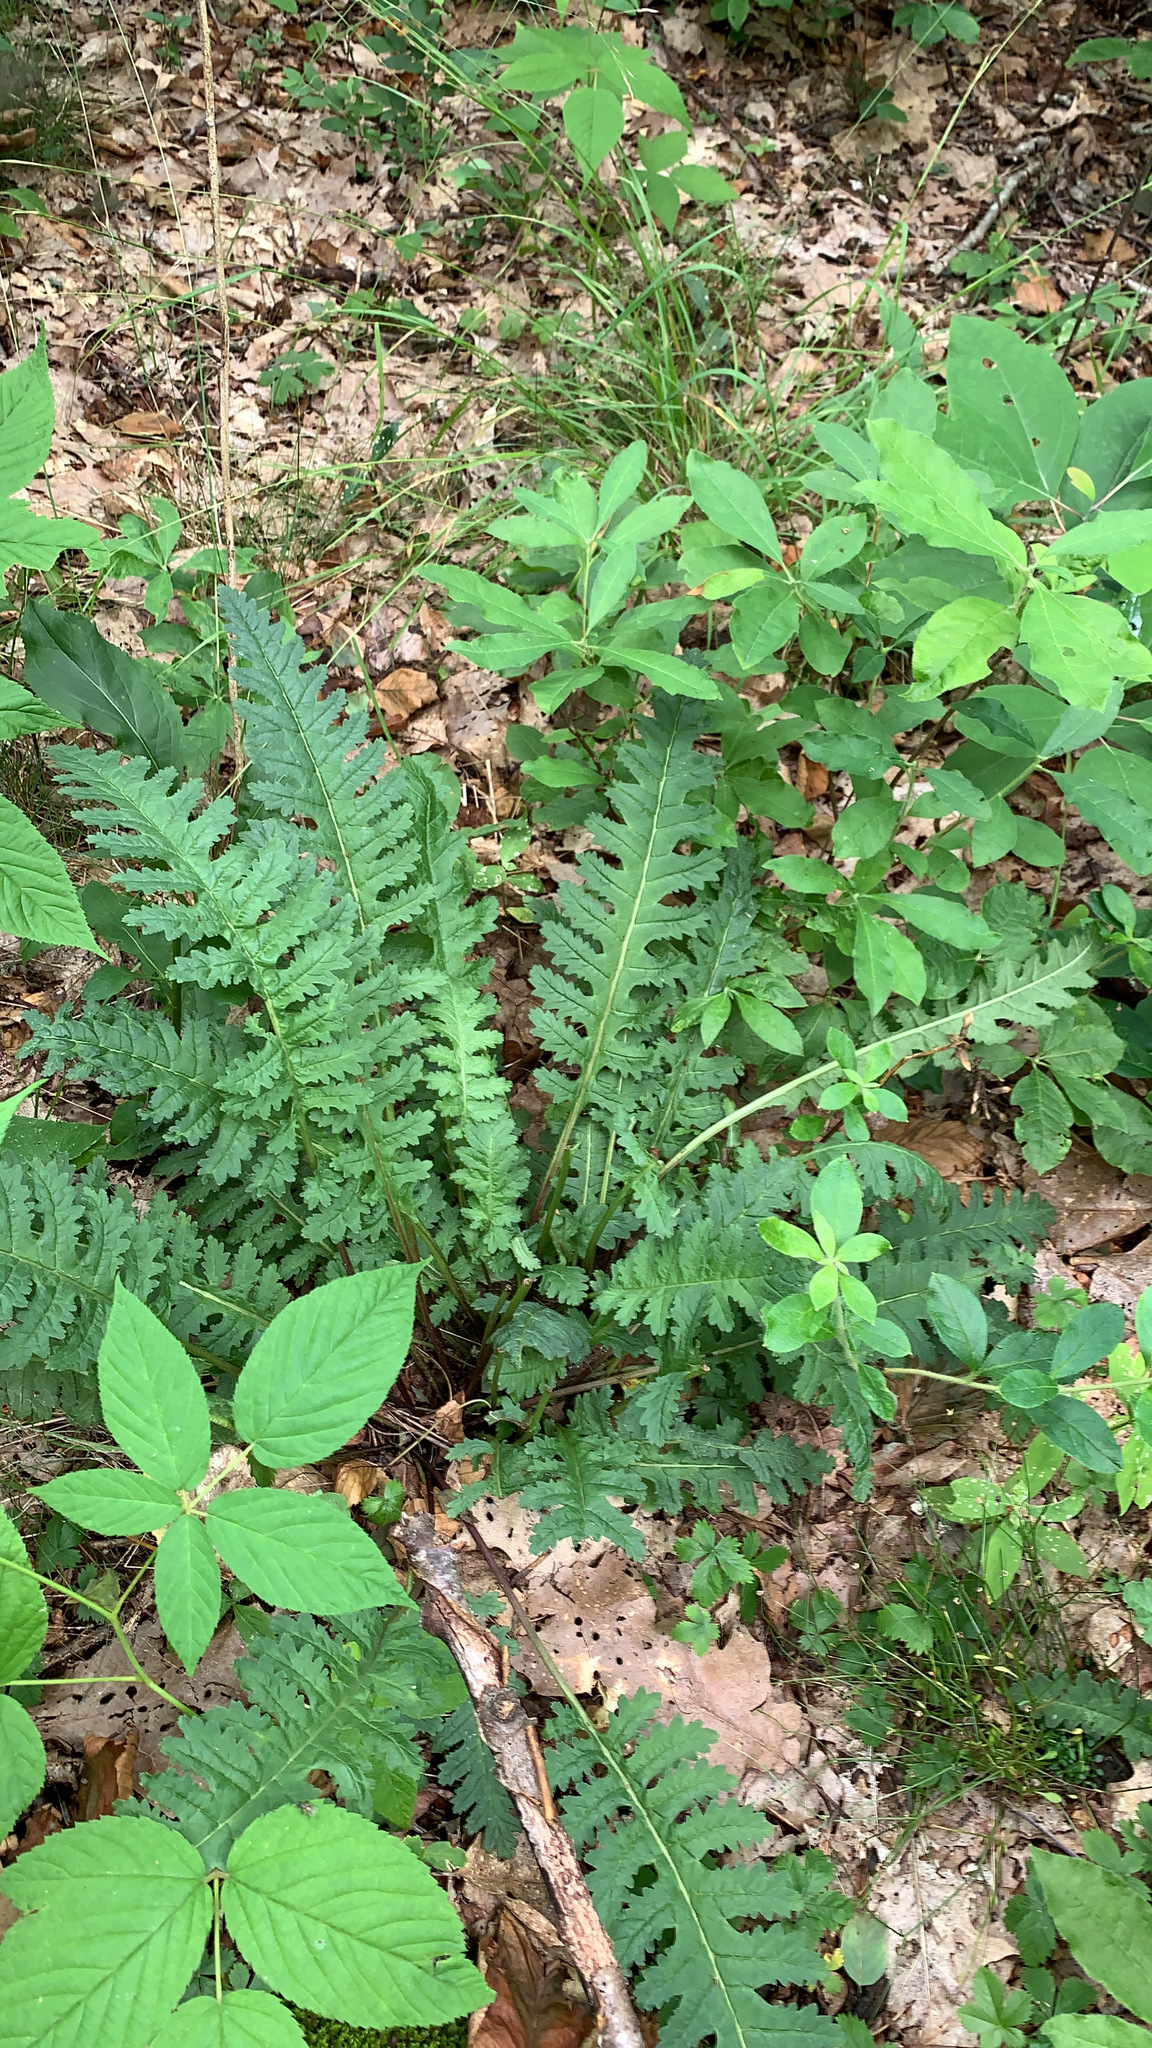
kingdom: Plantae
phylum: Tracheophyta
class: Magnoliopsida
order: Lamiales
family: Orobanchaceae
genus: Pedicularis
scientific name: Pedicularis canadensis
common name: Early lousewort
